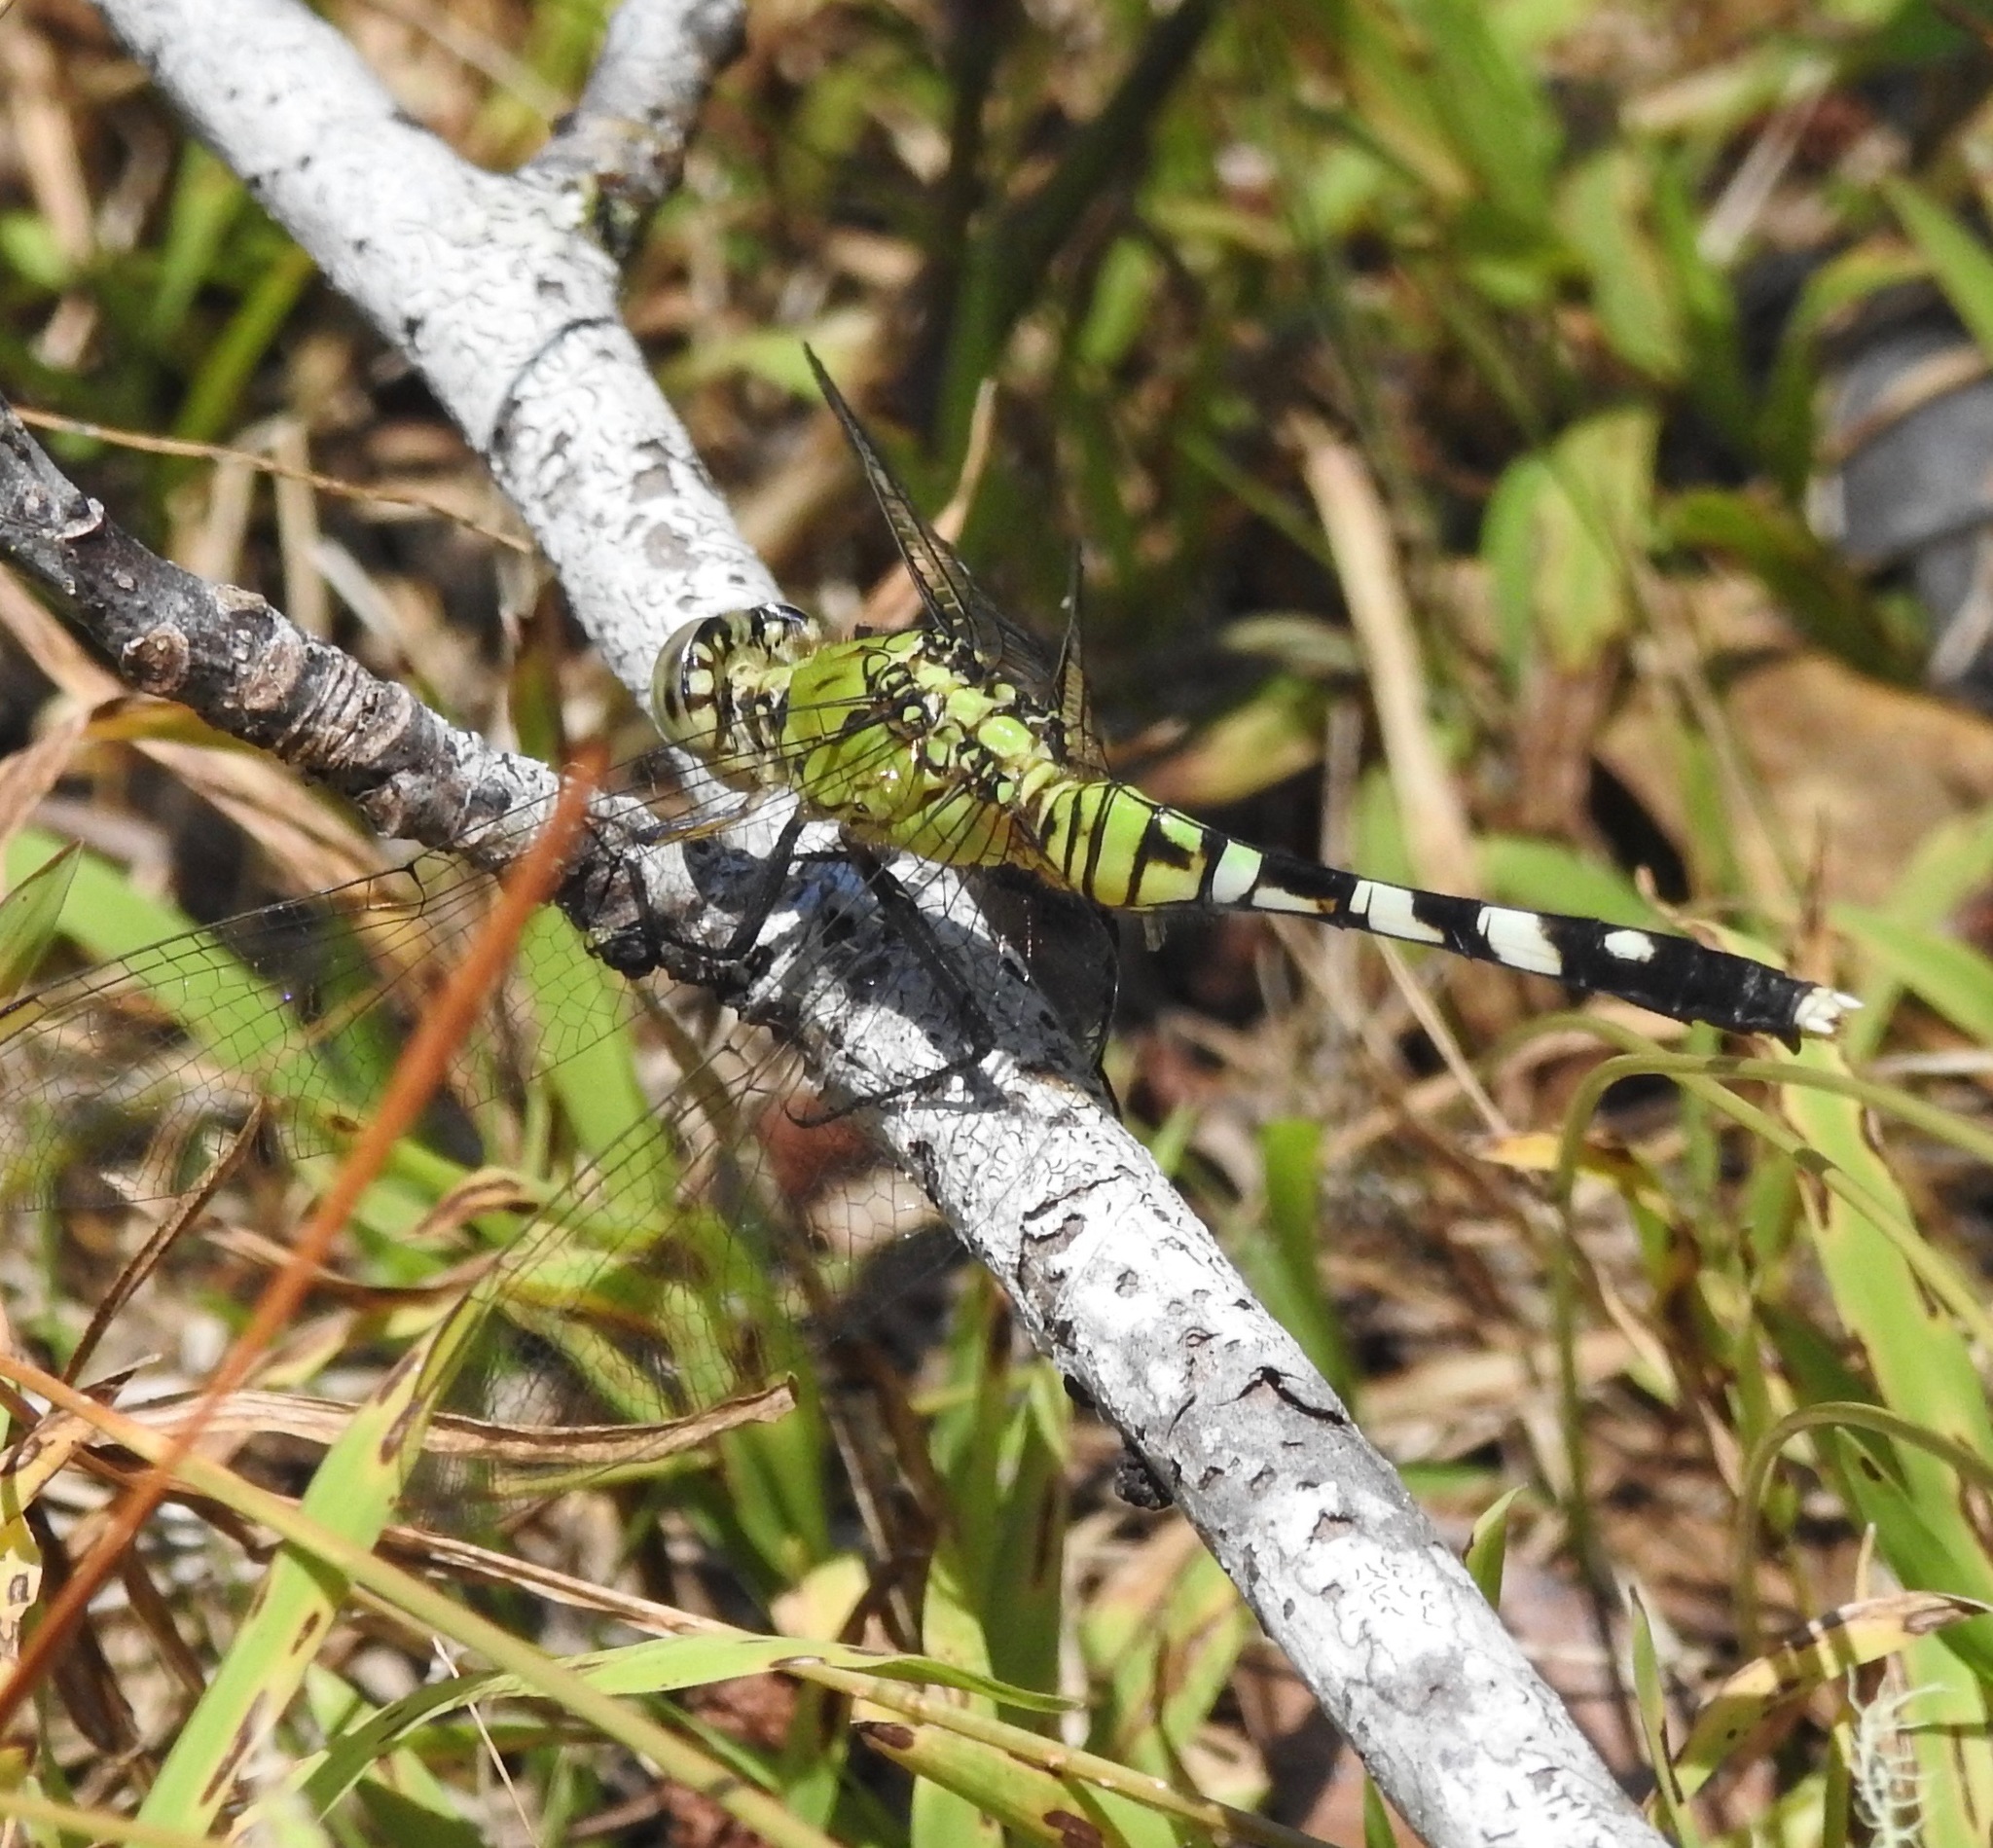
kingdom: Animalia
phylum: Arthropoda
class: Insecta
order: Odonata
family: Libellulidae
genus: Erythemis
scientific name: Erythemis simplicicollis
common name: Eastern pondhawk
